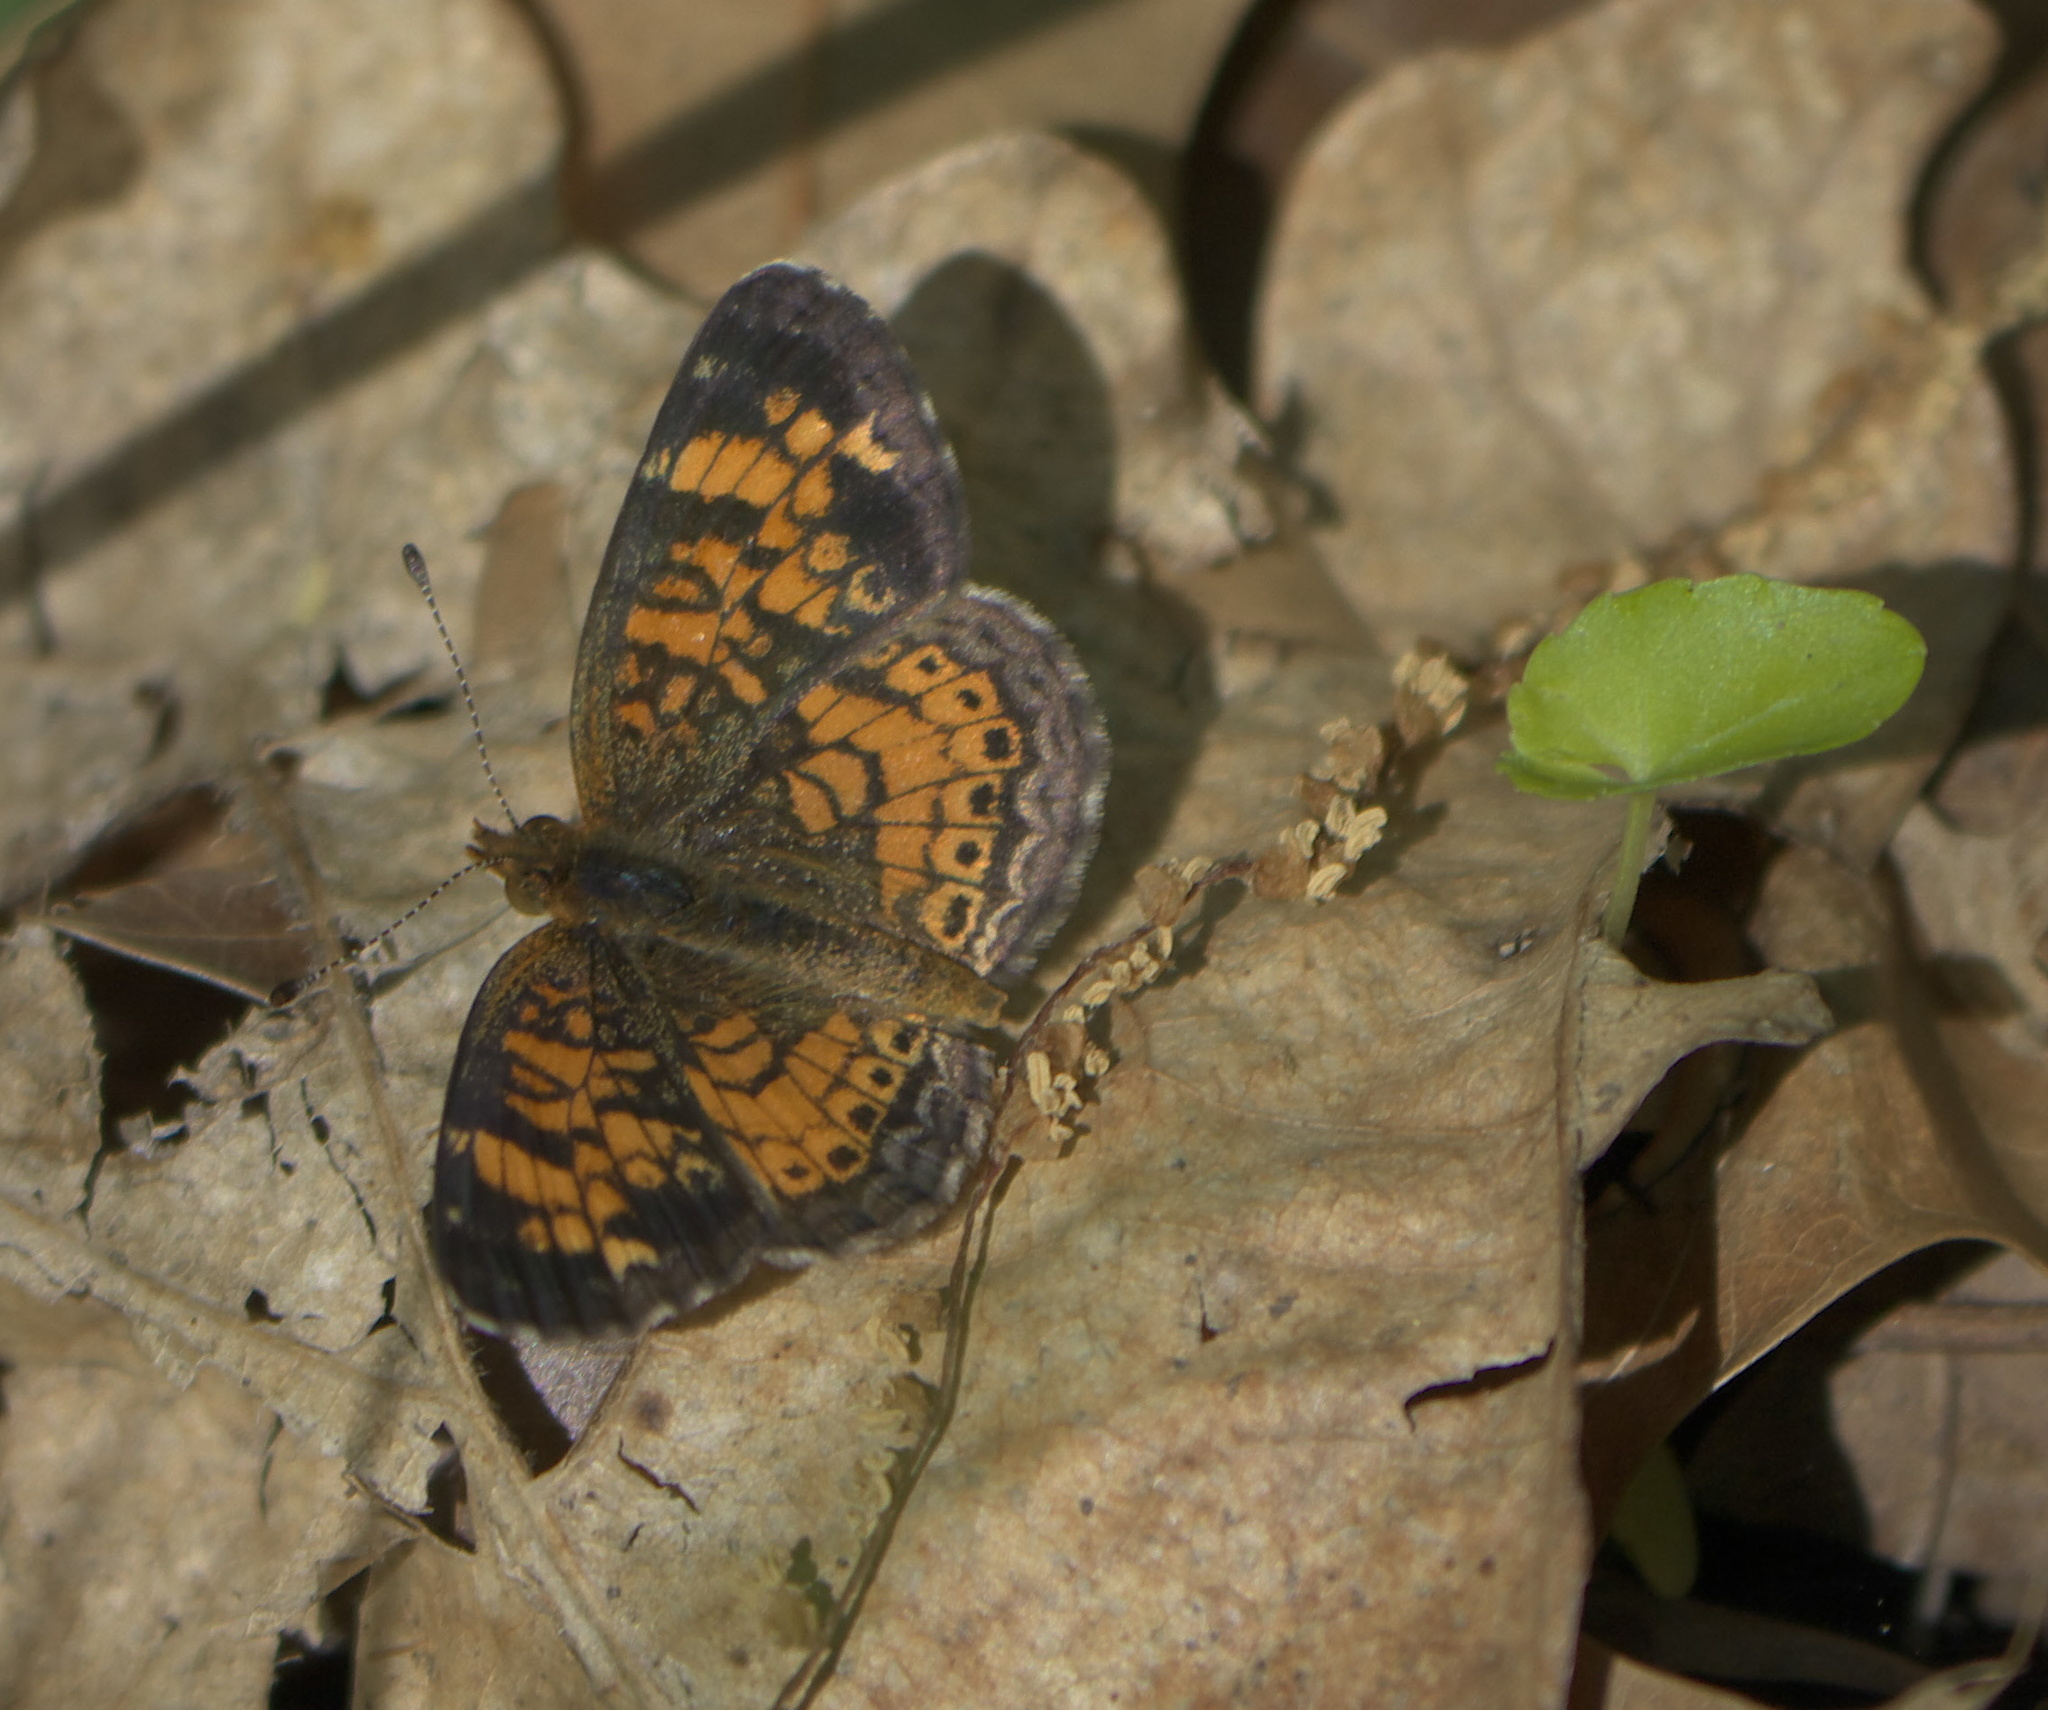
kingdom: Animalia
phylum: Arthropoda
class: Insecta
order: Lepidoptera
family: Nymphalidae
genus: Phyciodes
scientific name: Phyciodes tharos
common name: Pearl crescent
